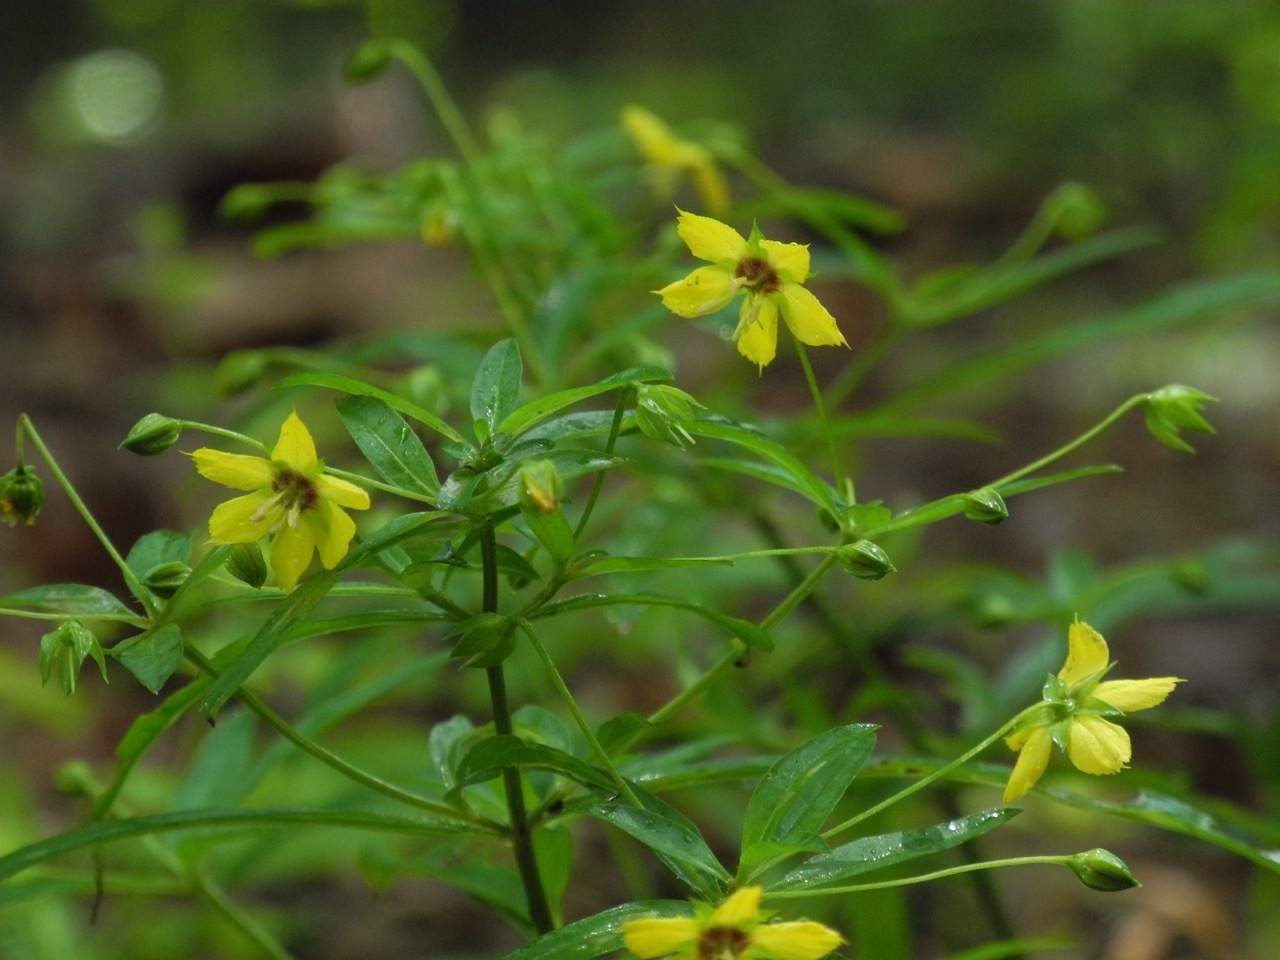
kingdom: Plantae
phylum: Tracheophyta
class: Magnoliopsida
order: Ericales
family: Primulaceae
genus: Lysimachia
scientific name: Lysimachia lanceolata
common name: Lance-leaved loosestrife
